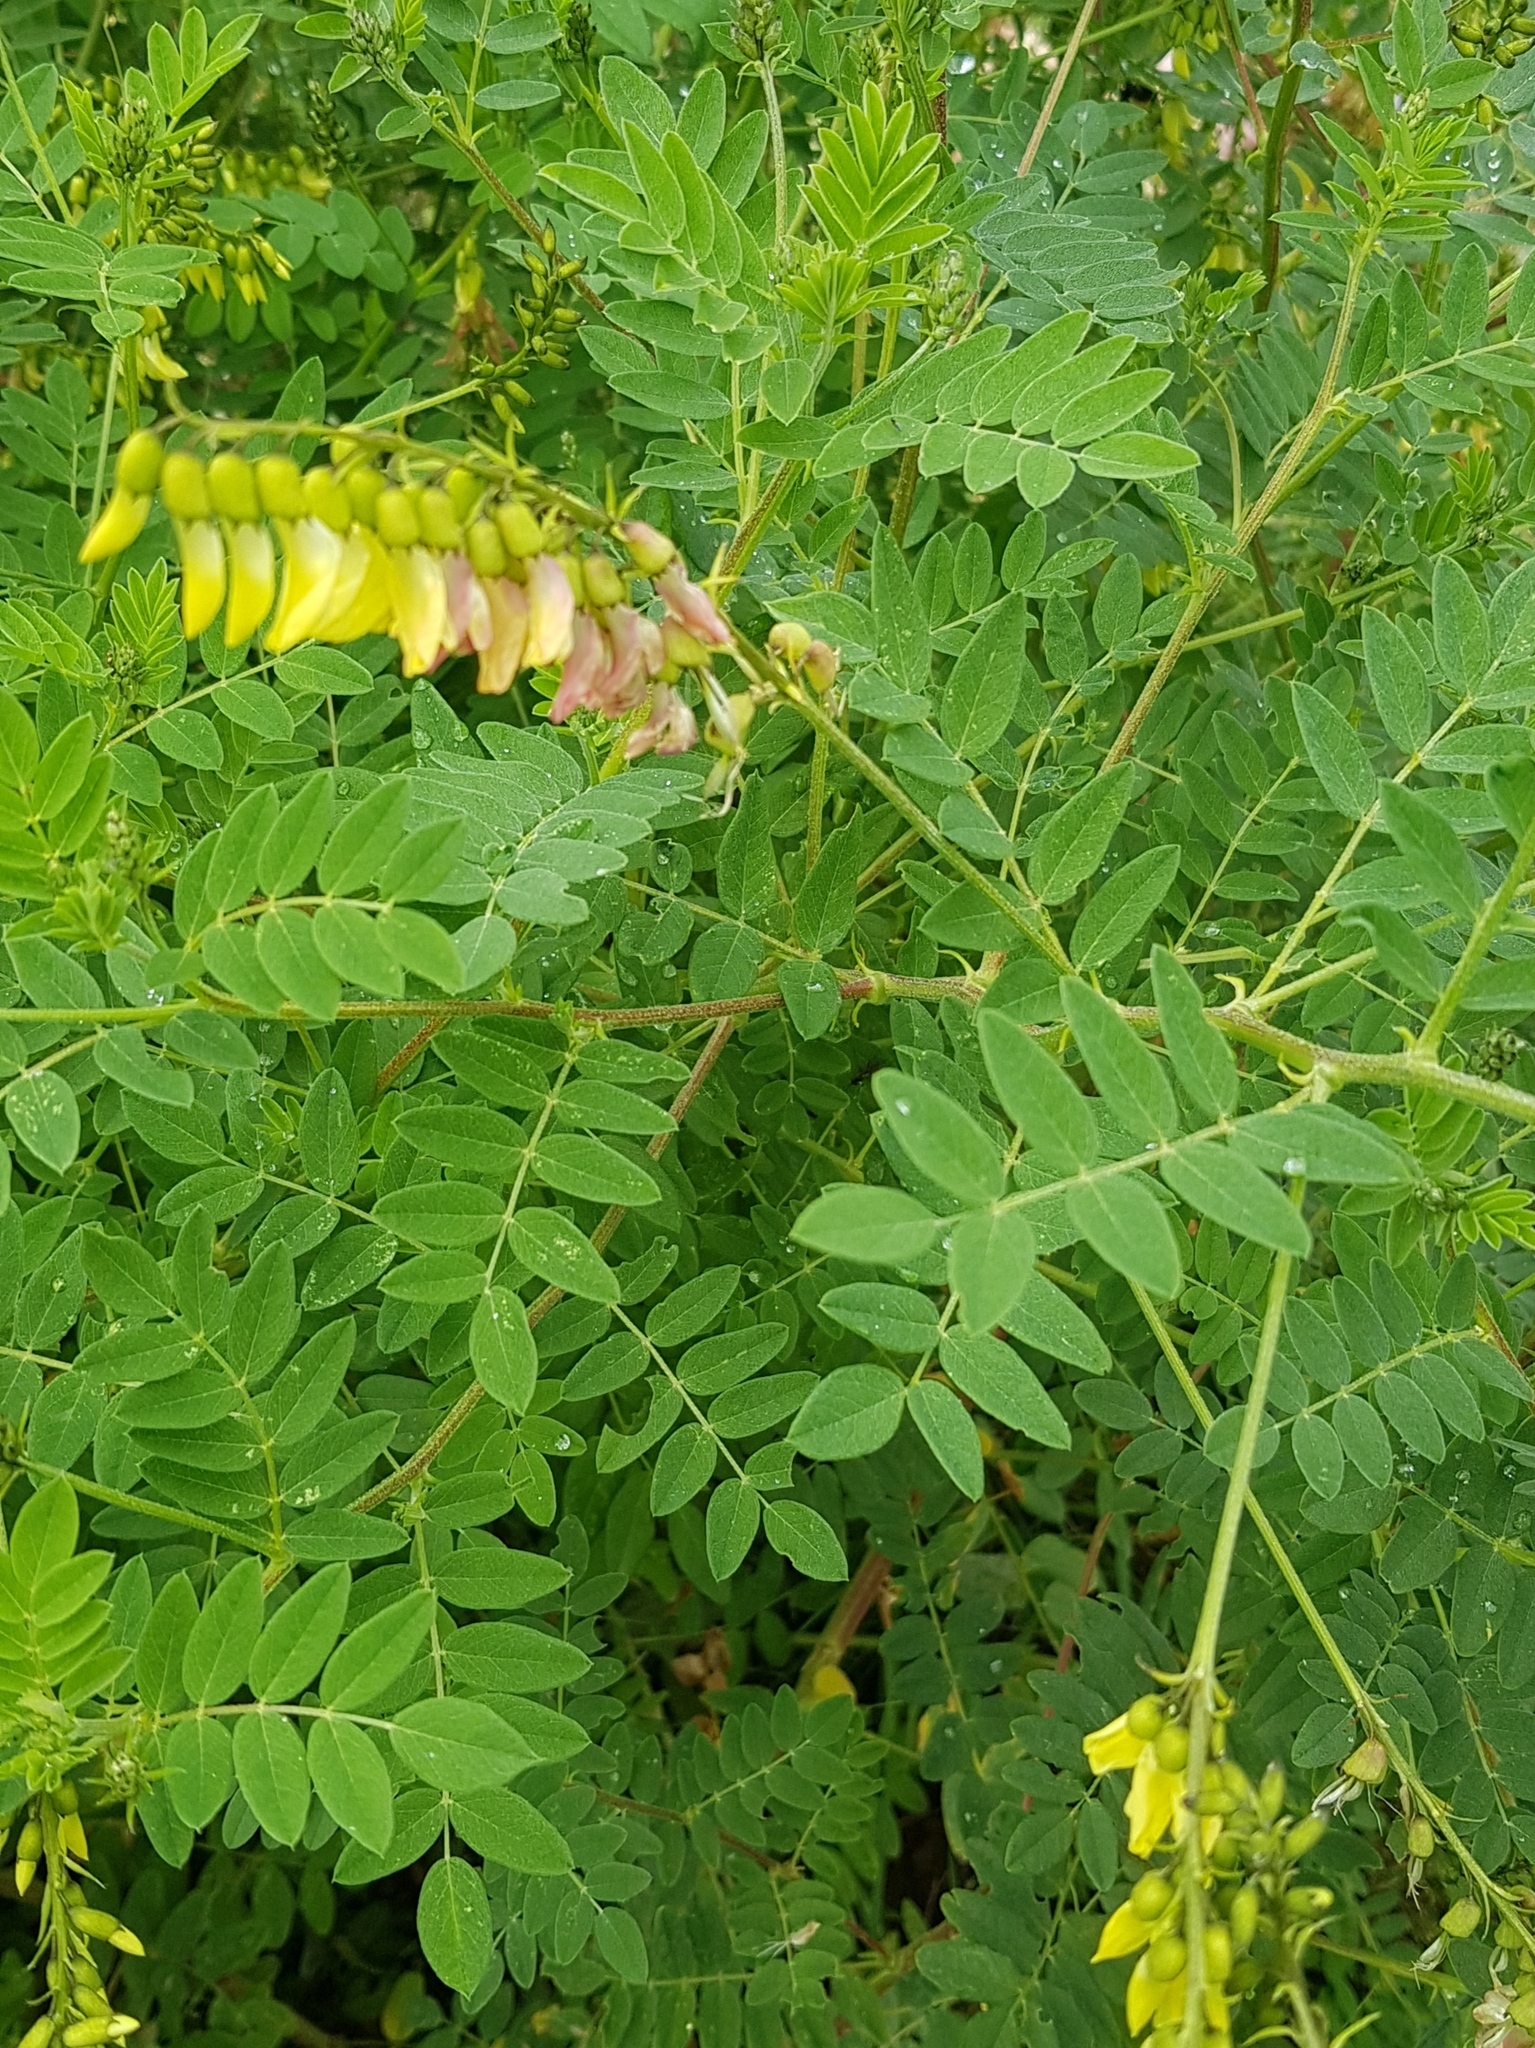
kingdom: Plantae
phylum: Tracheophyta
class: Magnoliopsida
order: Fabales
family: Fabaceae
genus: Astragalus
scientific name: Astragalus frigidus
